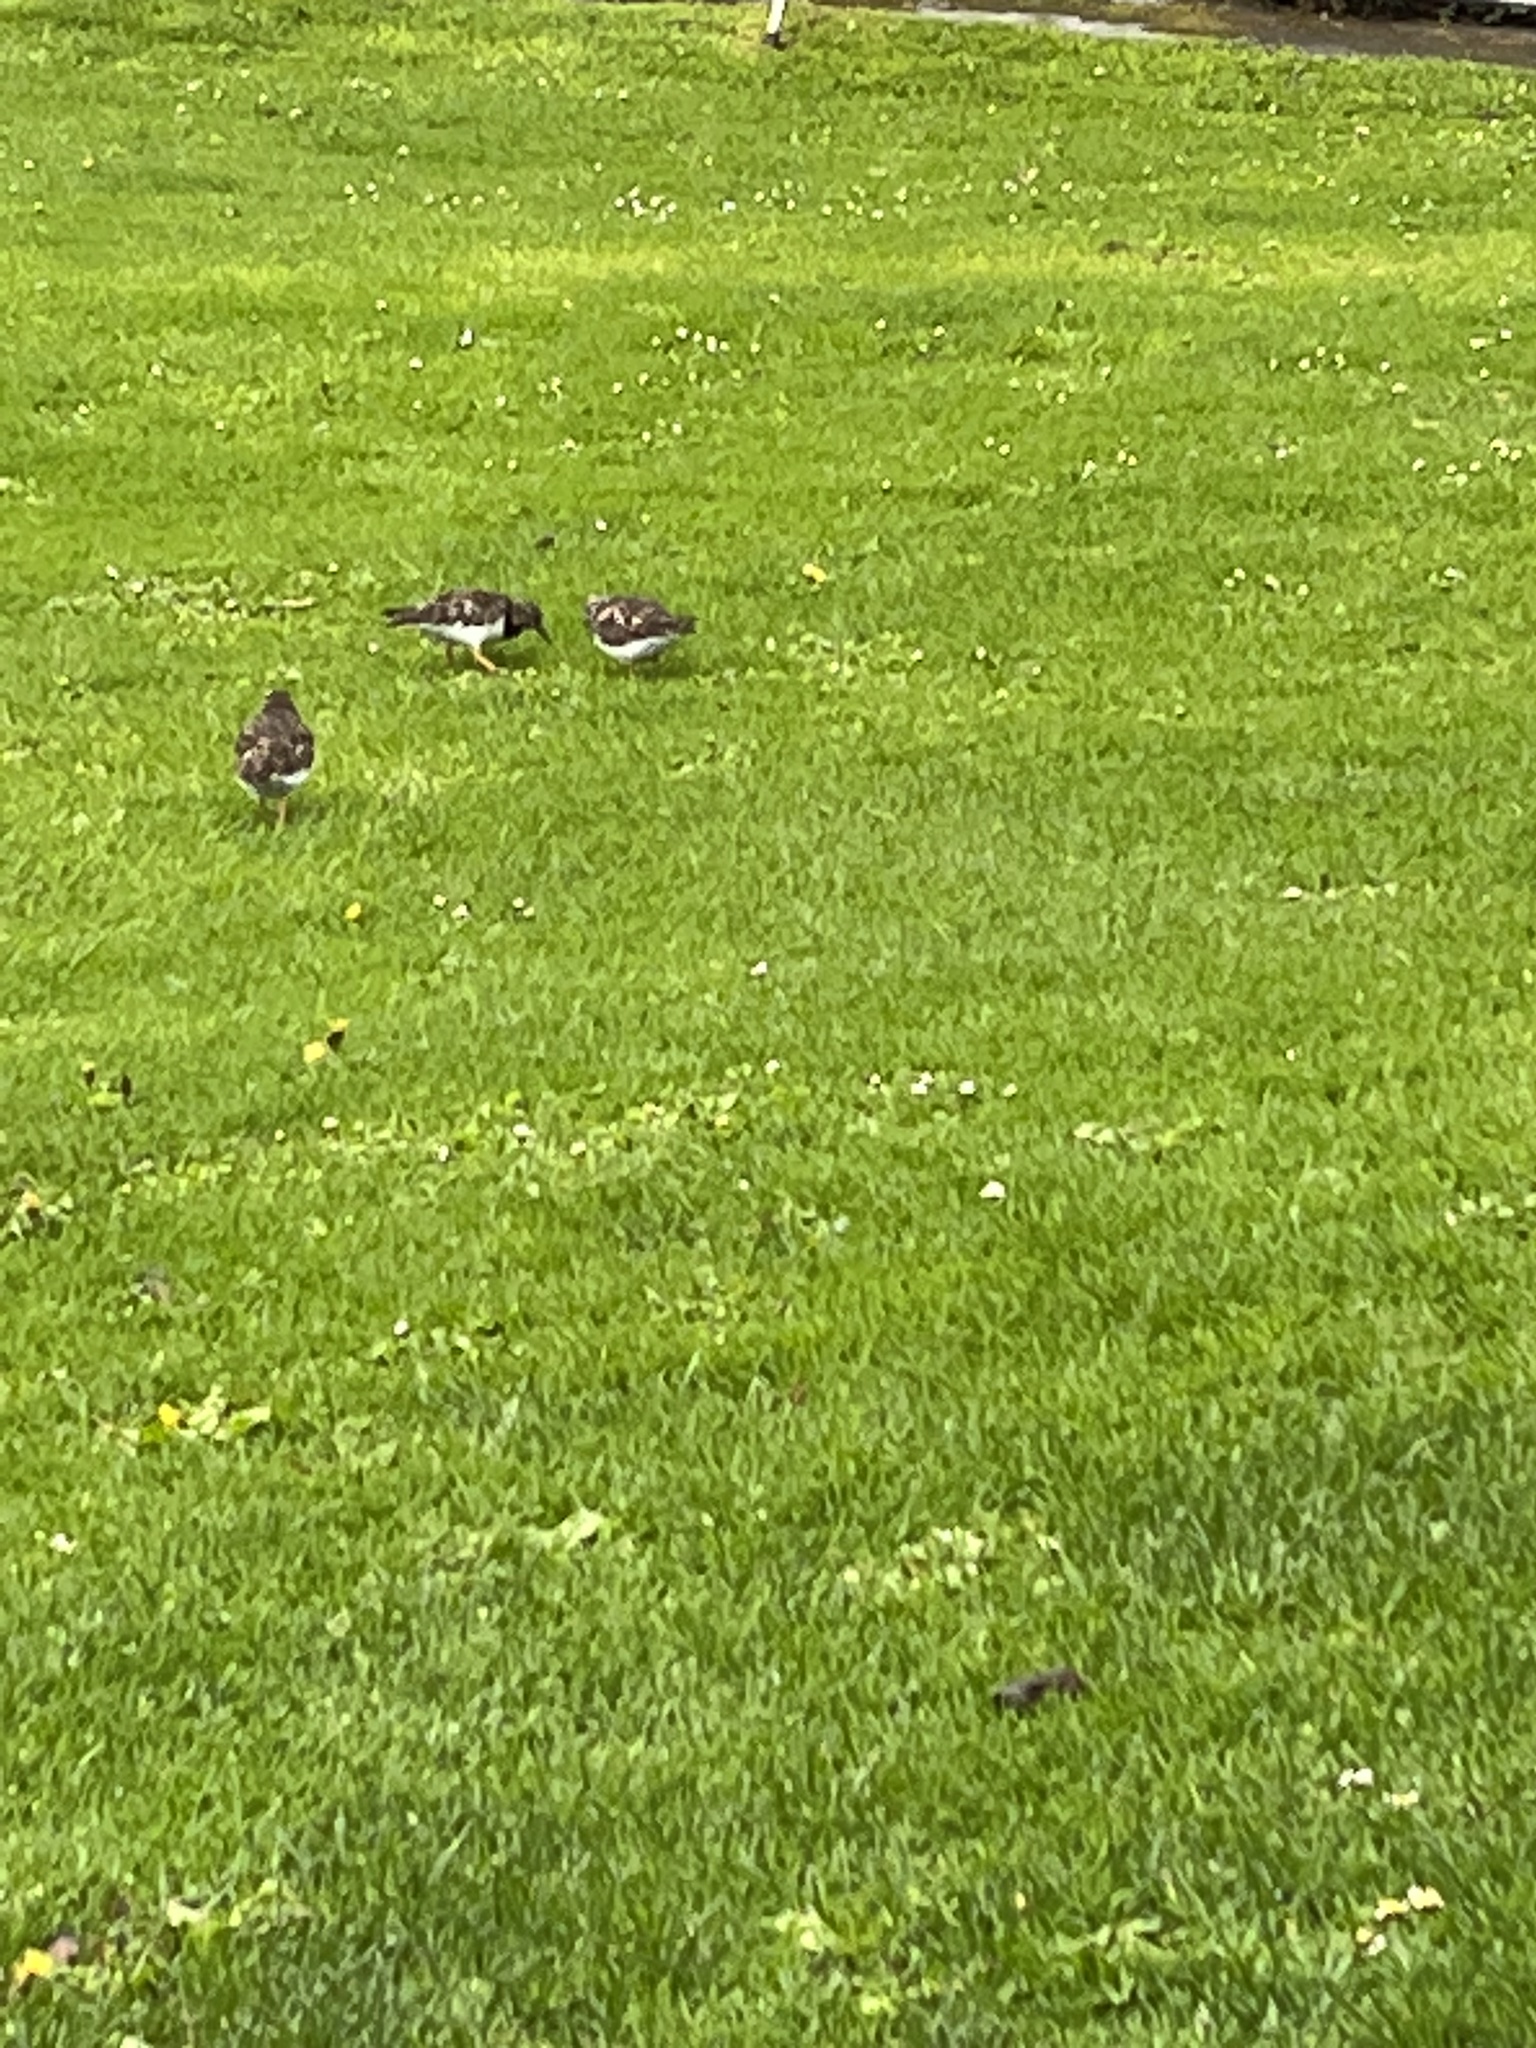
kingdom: Animalia
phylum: Chordata
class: Aves
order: Charadriiformes
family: Scolopacidae
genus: Arenaria
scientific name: Arenaria interpres
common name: Ruddy turnstone
